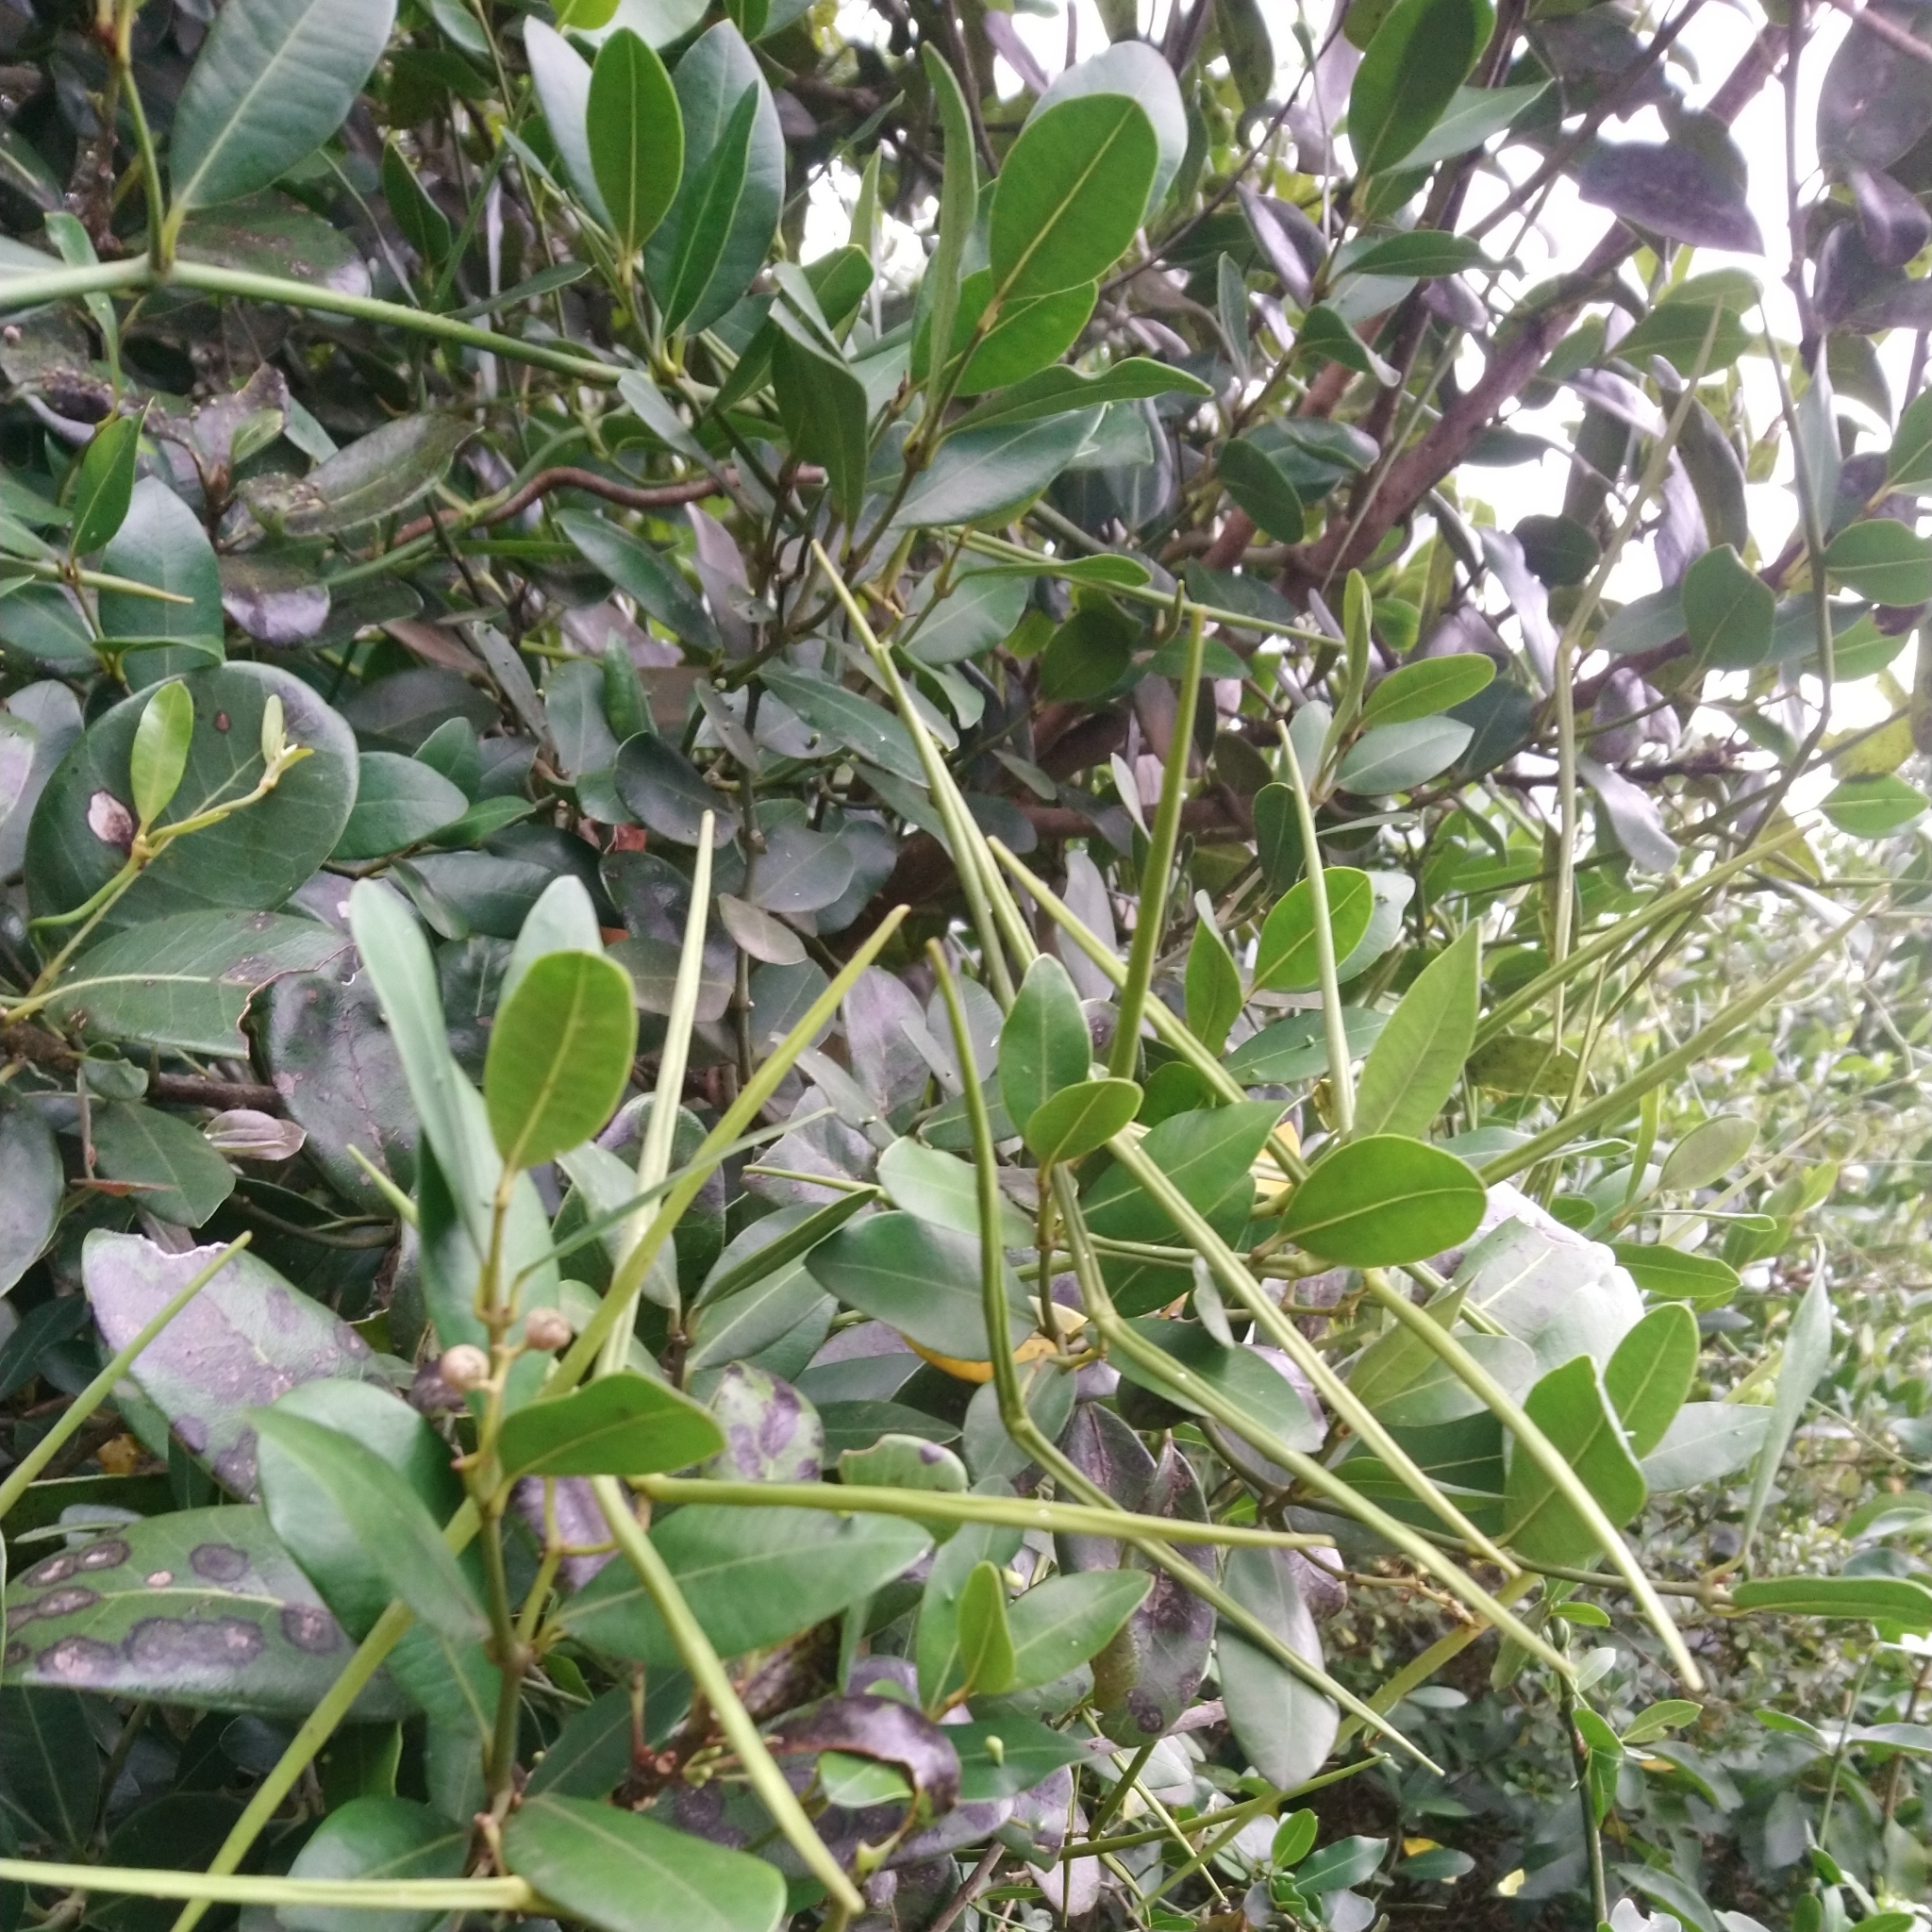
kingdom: Plantae
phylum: Tracheophyta
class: Magnoliopsida
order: Gentianales
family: Apocynaceae
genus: Secamone
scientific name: Secamone alpini
